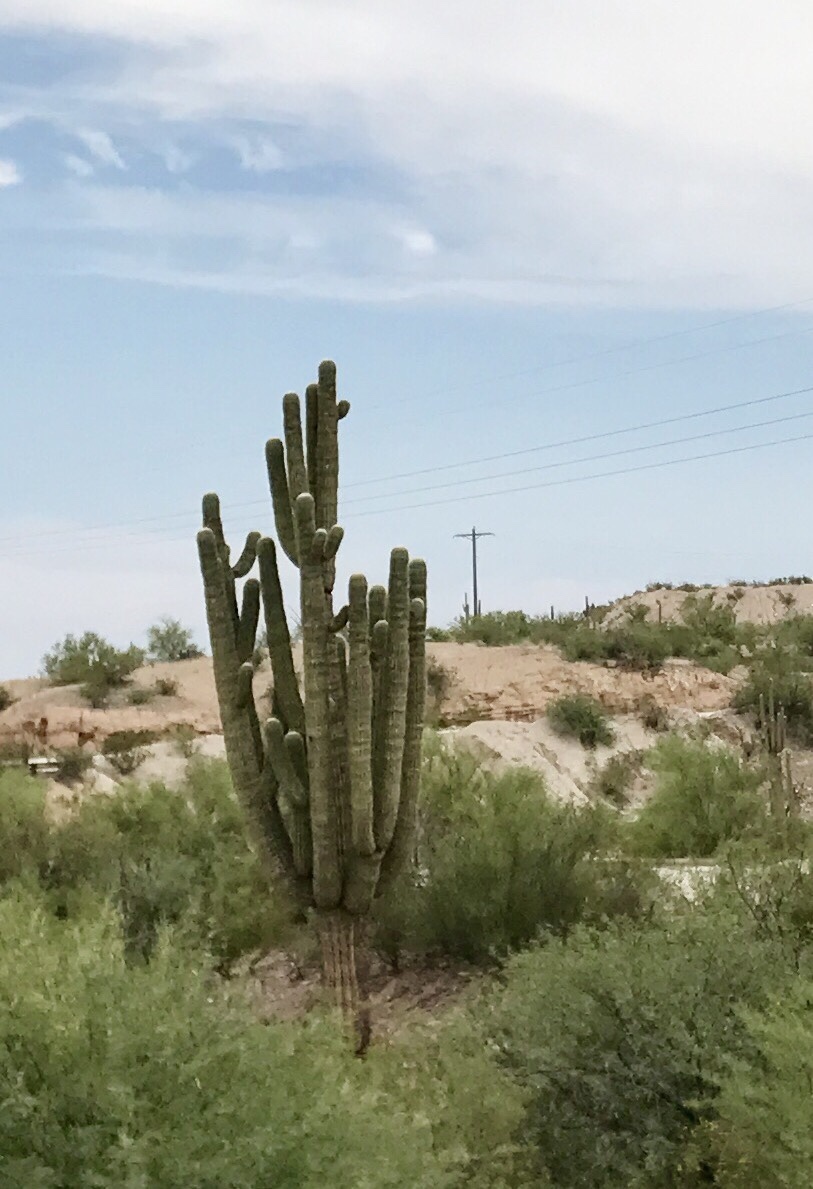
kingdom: Plantae
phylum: Tracheophyta
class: Magnoliopsida
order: Caryophyllales
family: Cactaceae
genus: Carnegiea
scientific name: Carnegiea gigantea
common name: Saguaro
